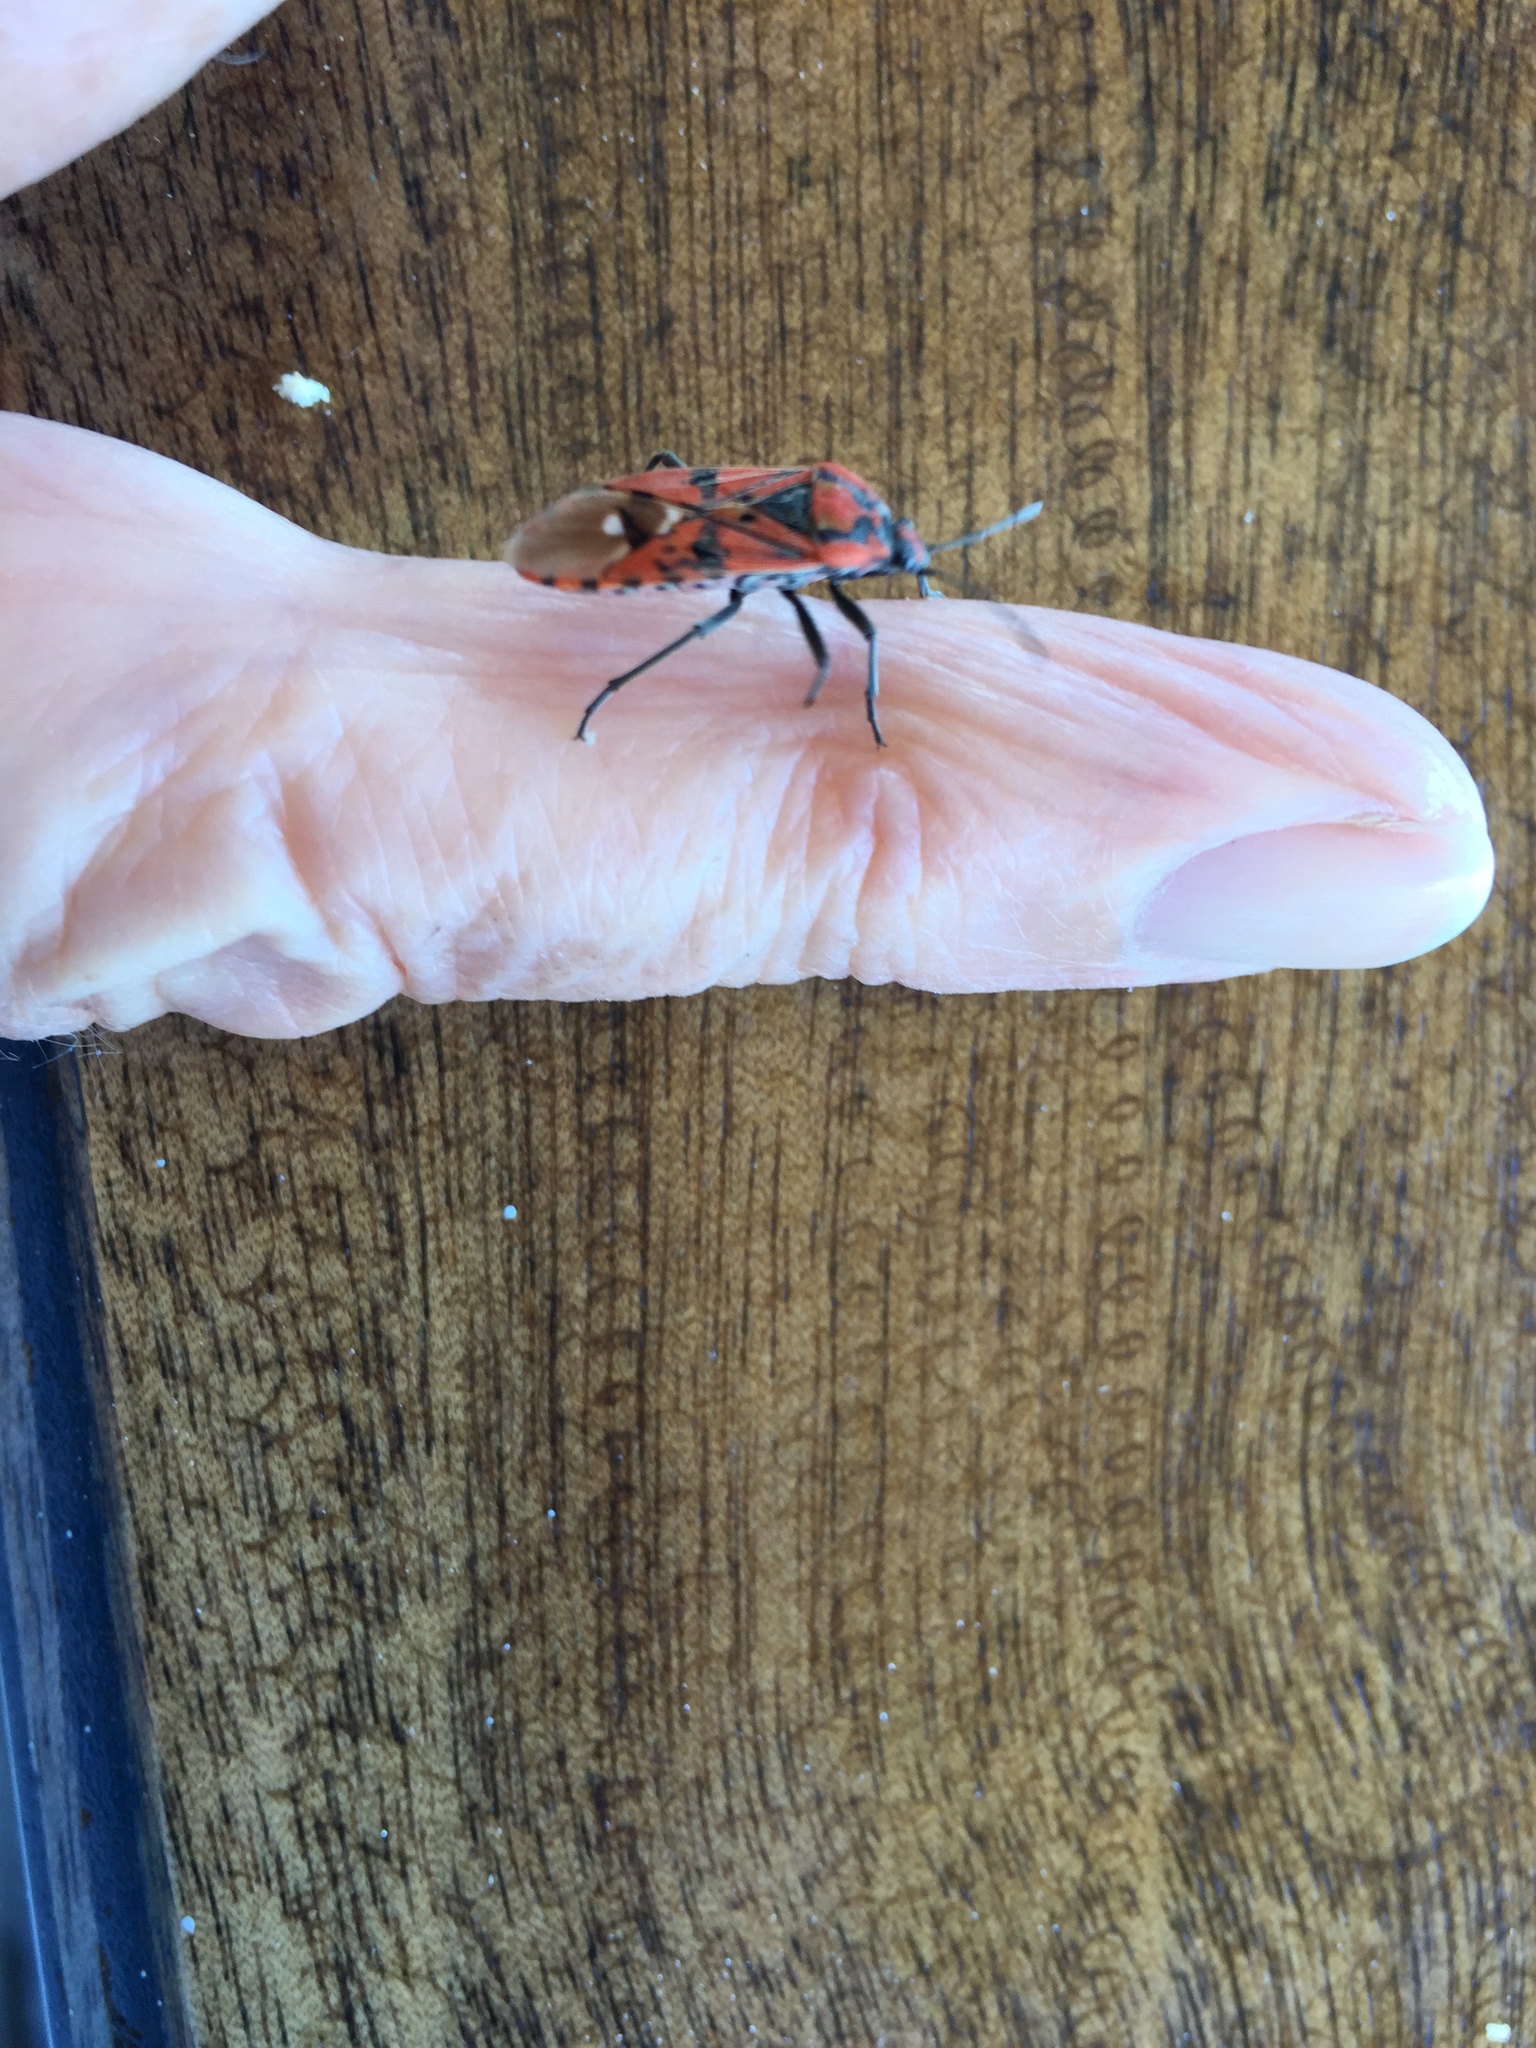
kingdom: Animalia
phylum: Arthropoda
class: Insecta
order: Hemiptera
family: Lygaeidae
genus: Spilostethus
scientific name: Spilostethus pandurus
